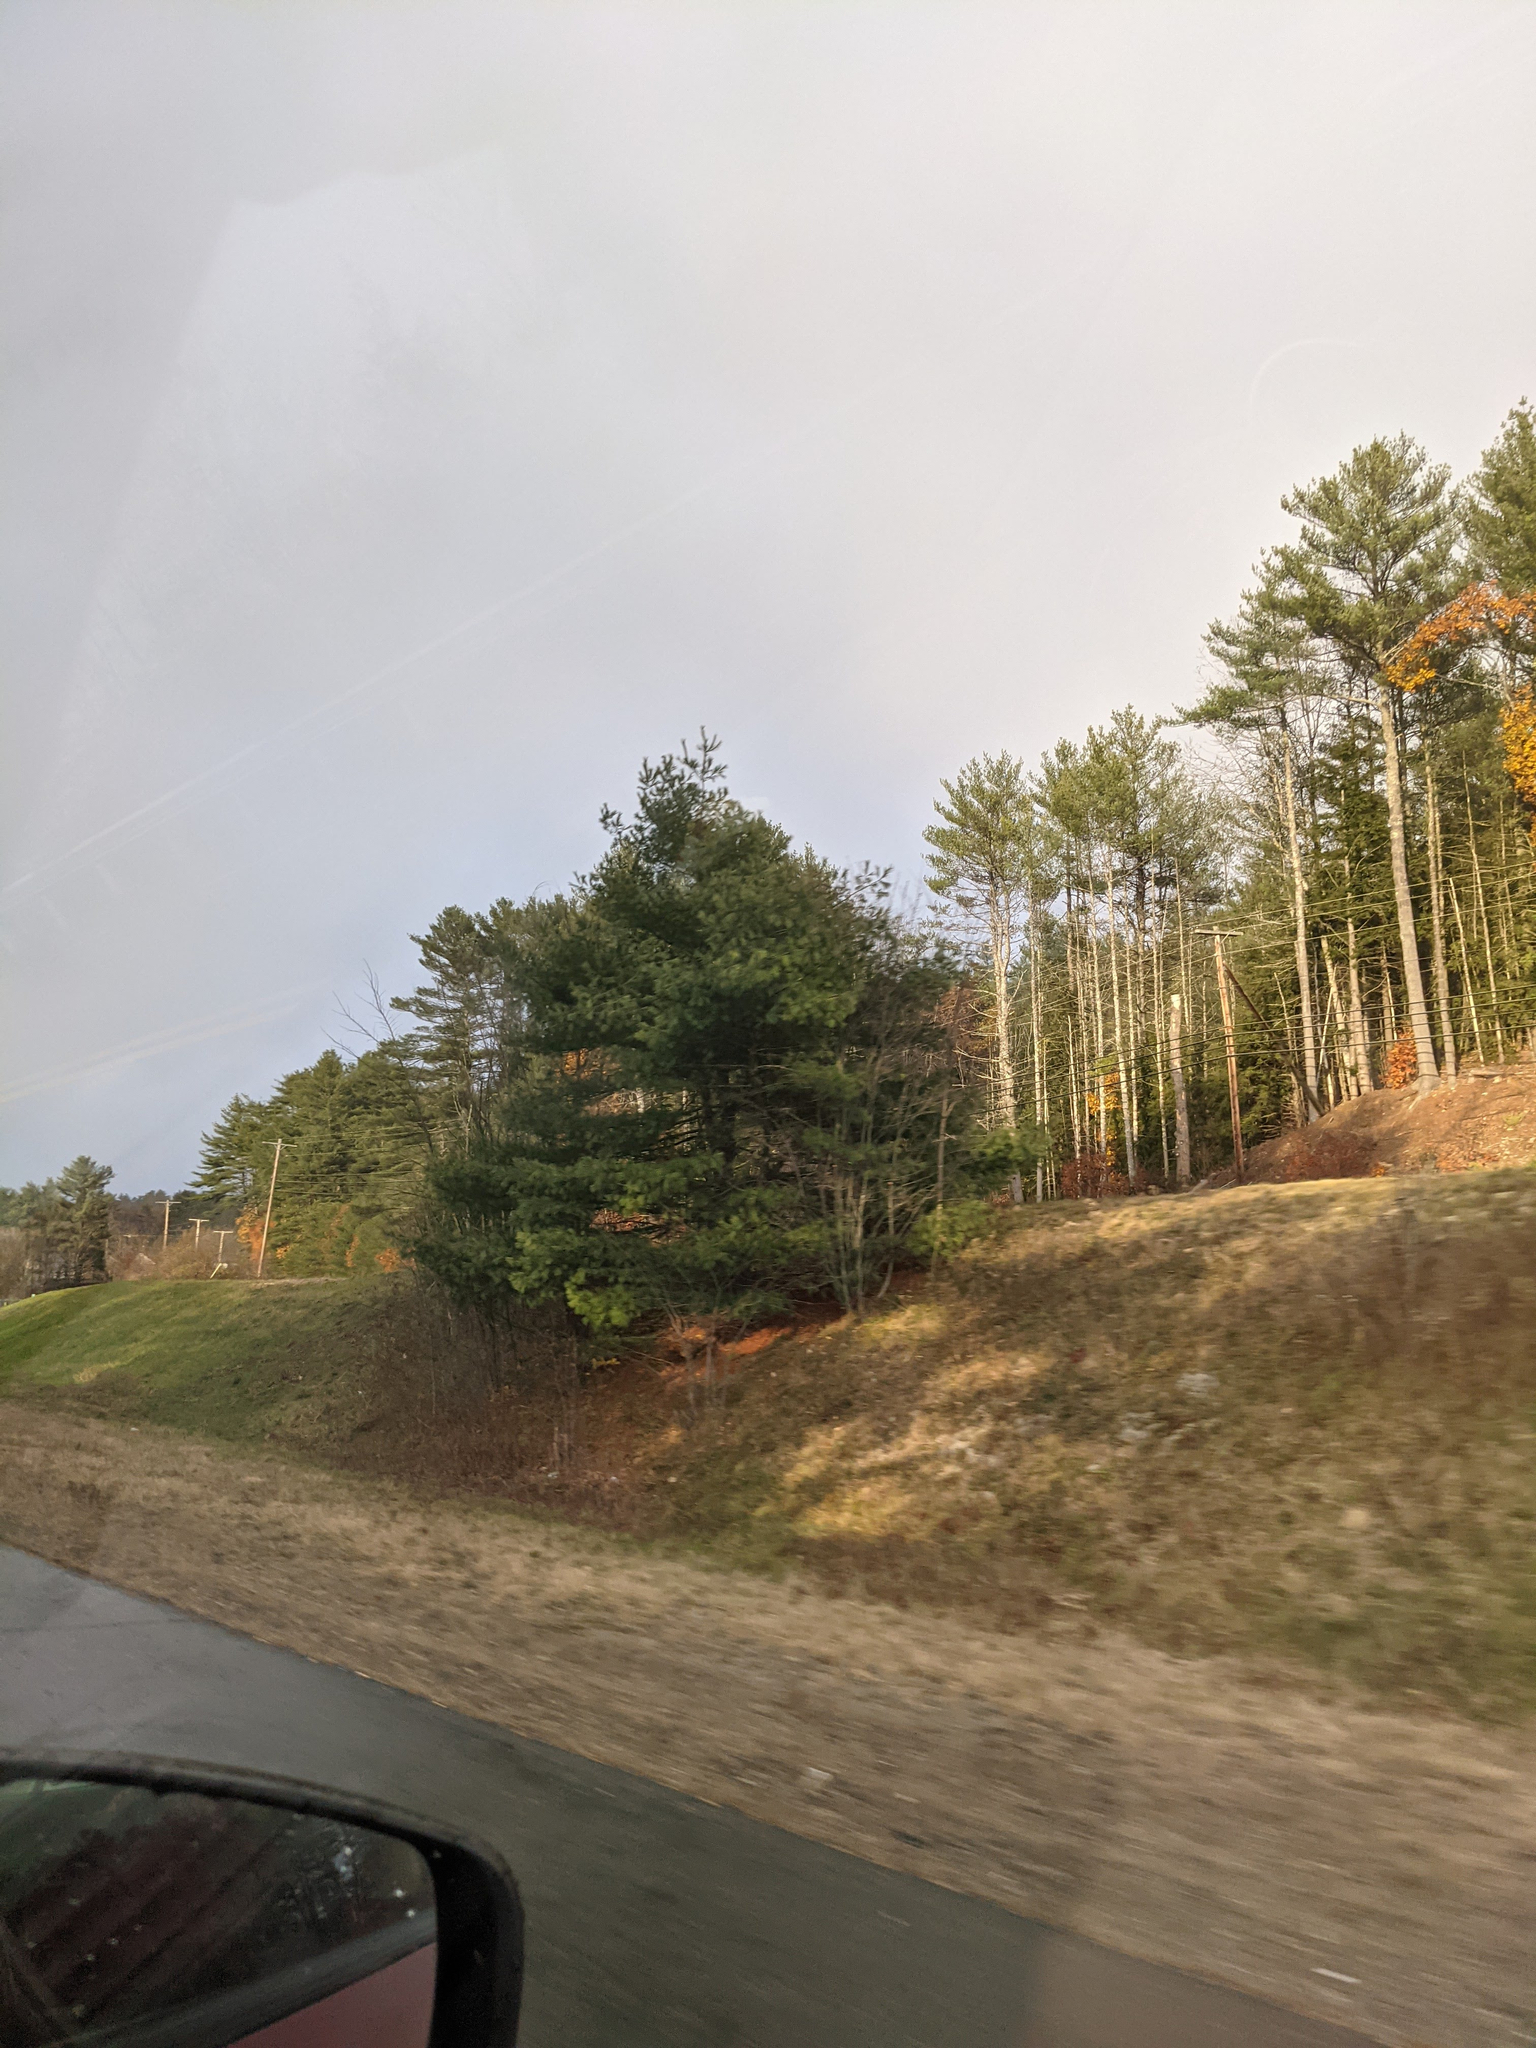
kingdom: Plantae
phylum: Tracheophyta
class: Pinopsida
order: Pinales
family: Pinaceae
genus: Pinus
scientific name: Pinus strobus
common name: Weymouth pine
